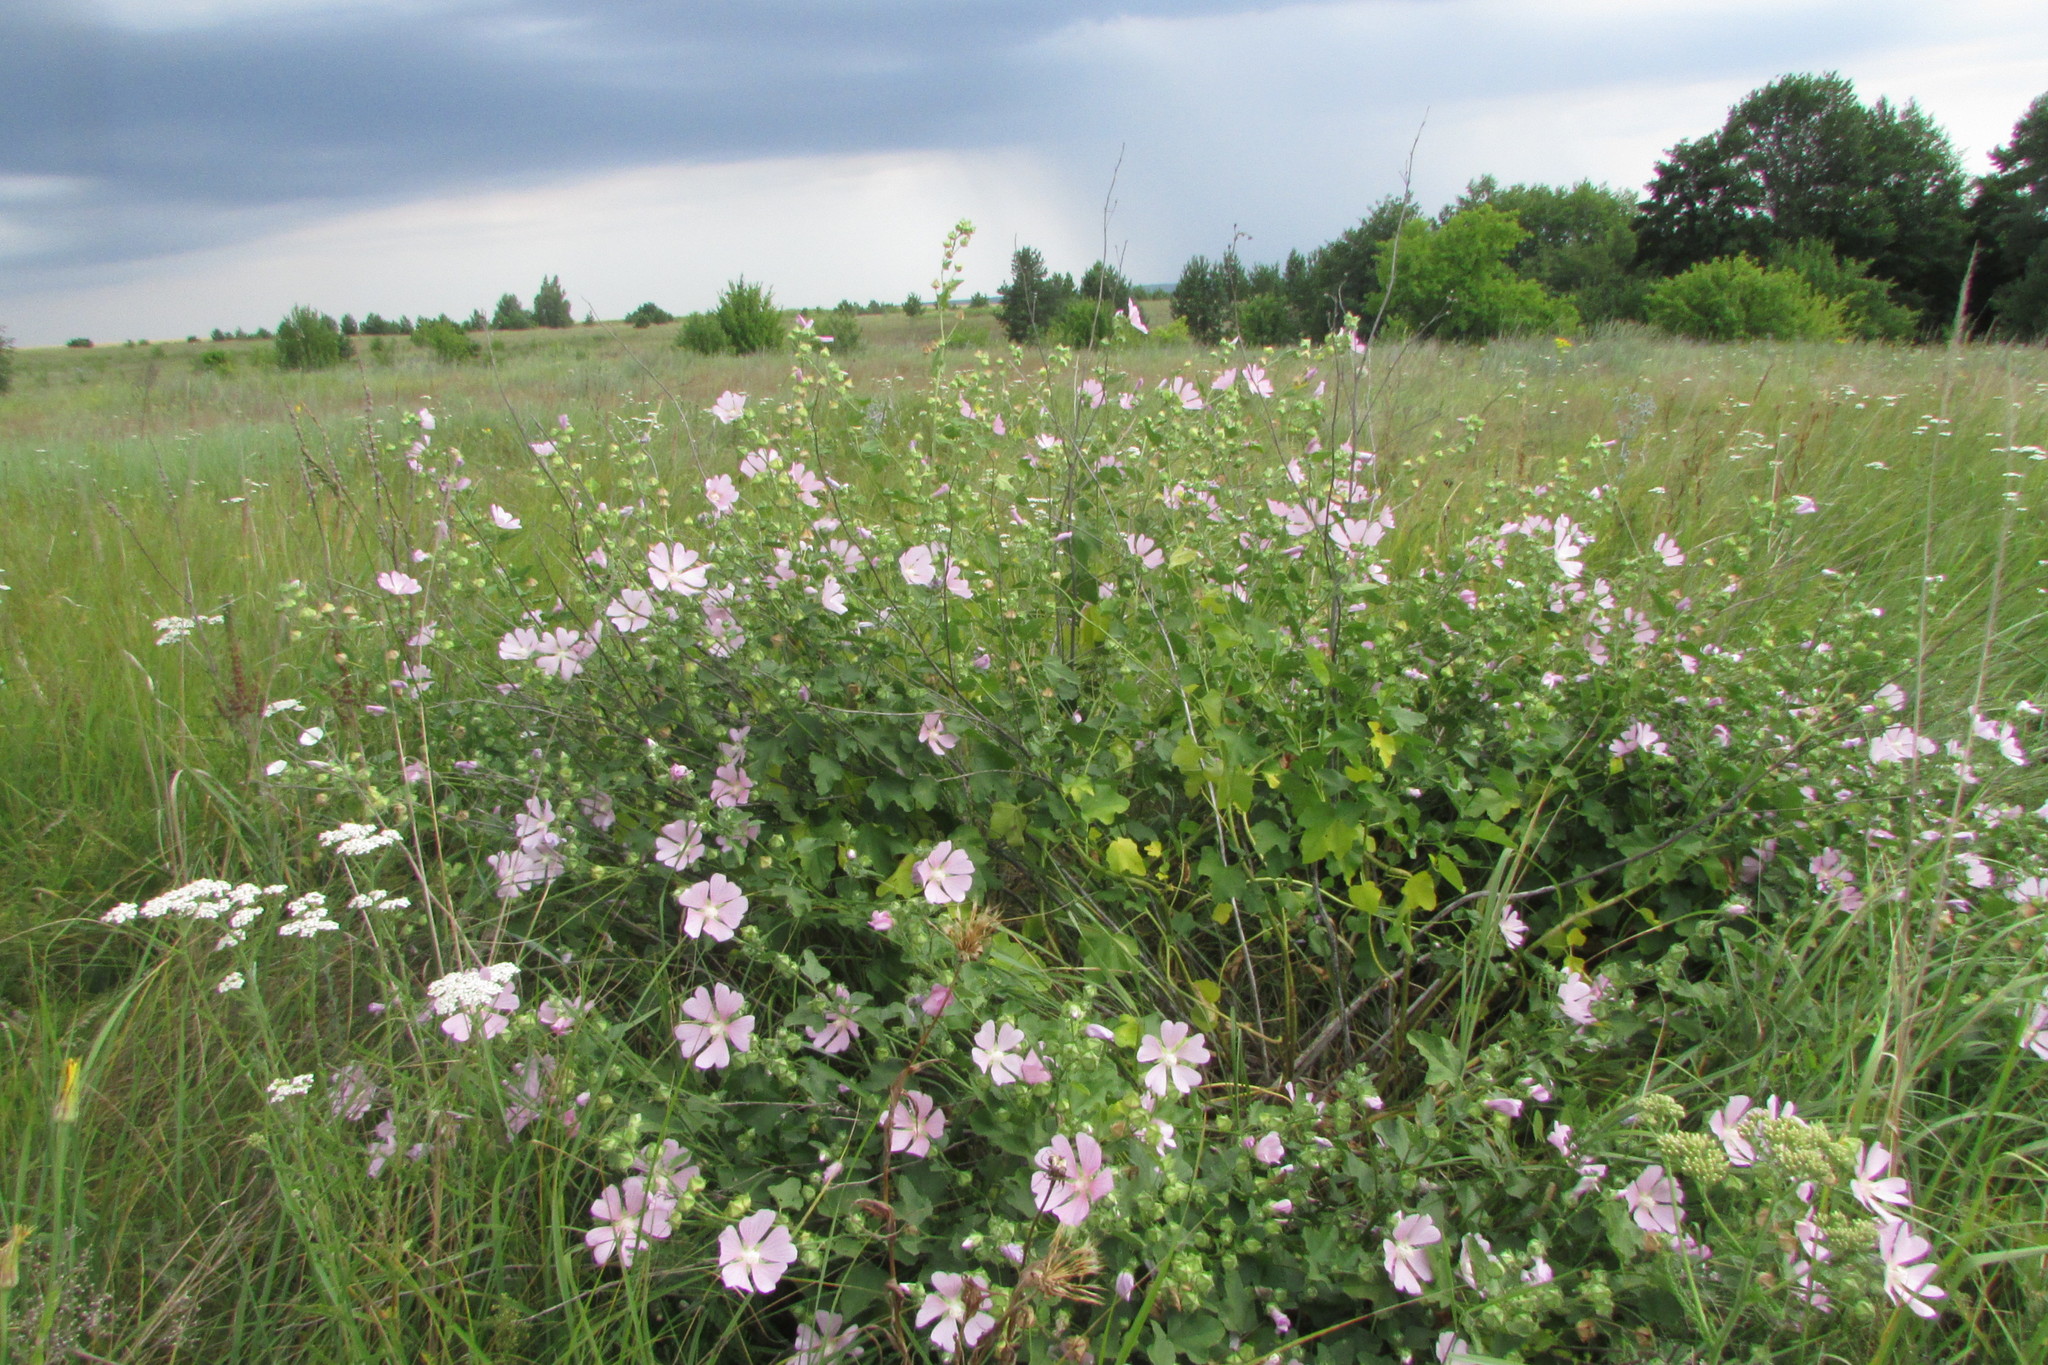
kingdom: Plantae
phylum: Tracheophyta
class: Magnoliopsida
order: Malvales
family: Malvaceae
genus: Malva
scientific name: Malva thuringiaca
